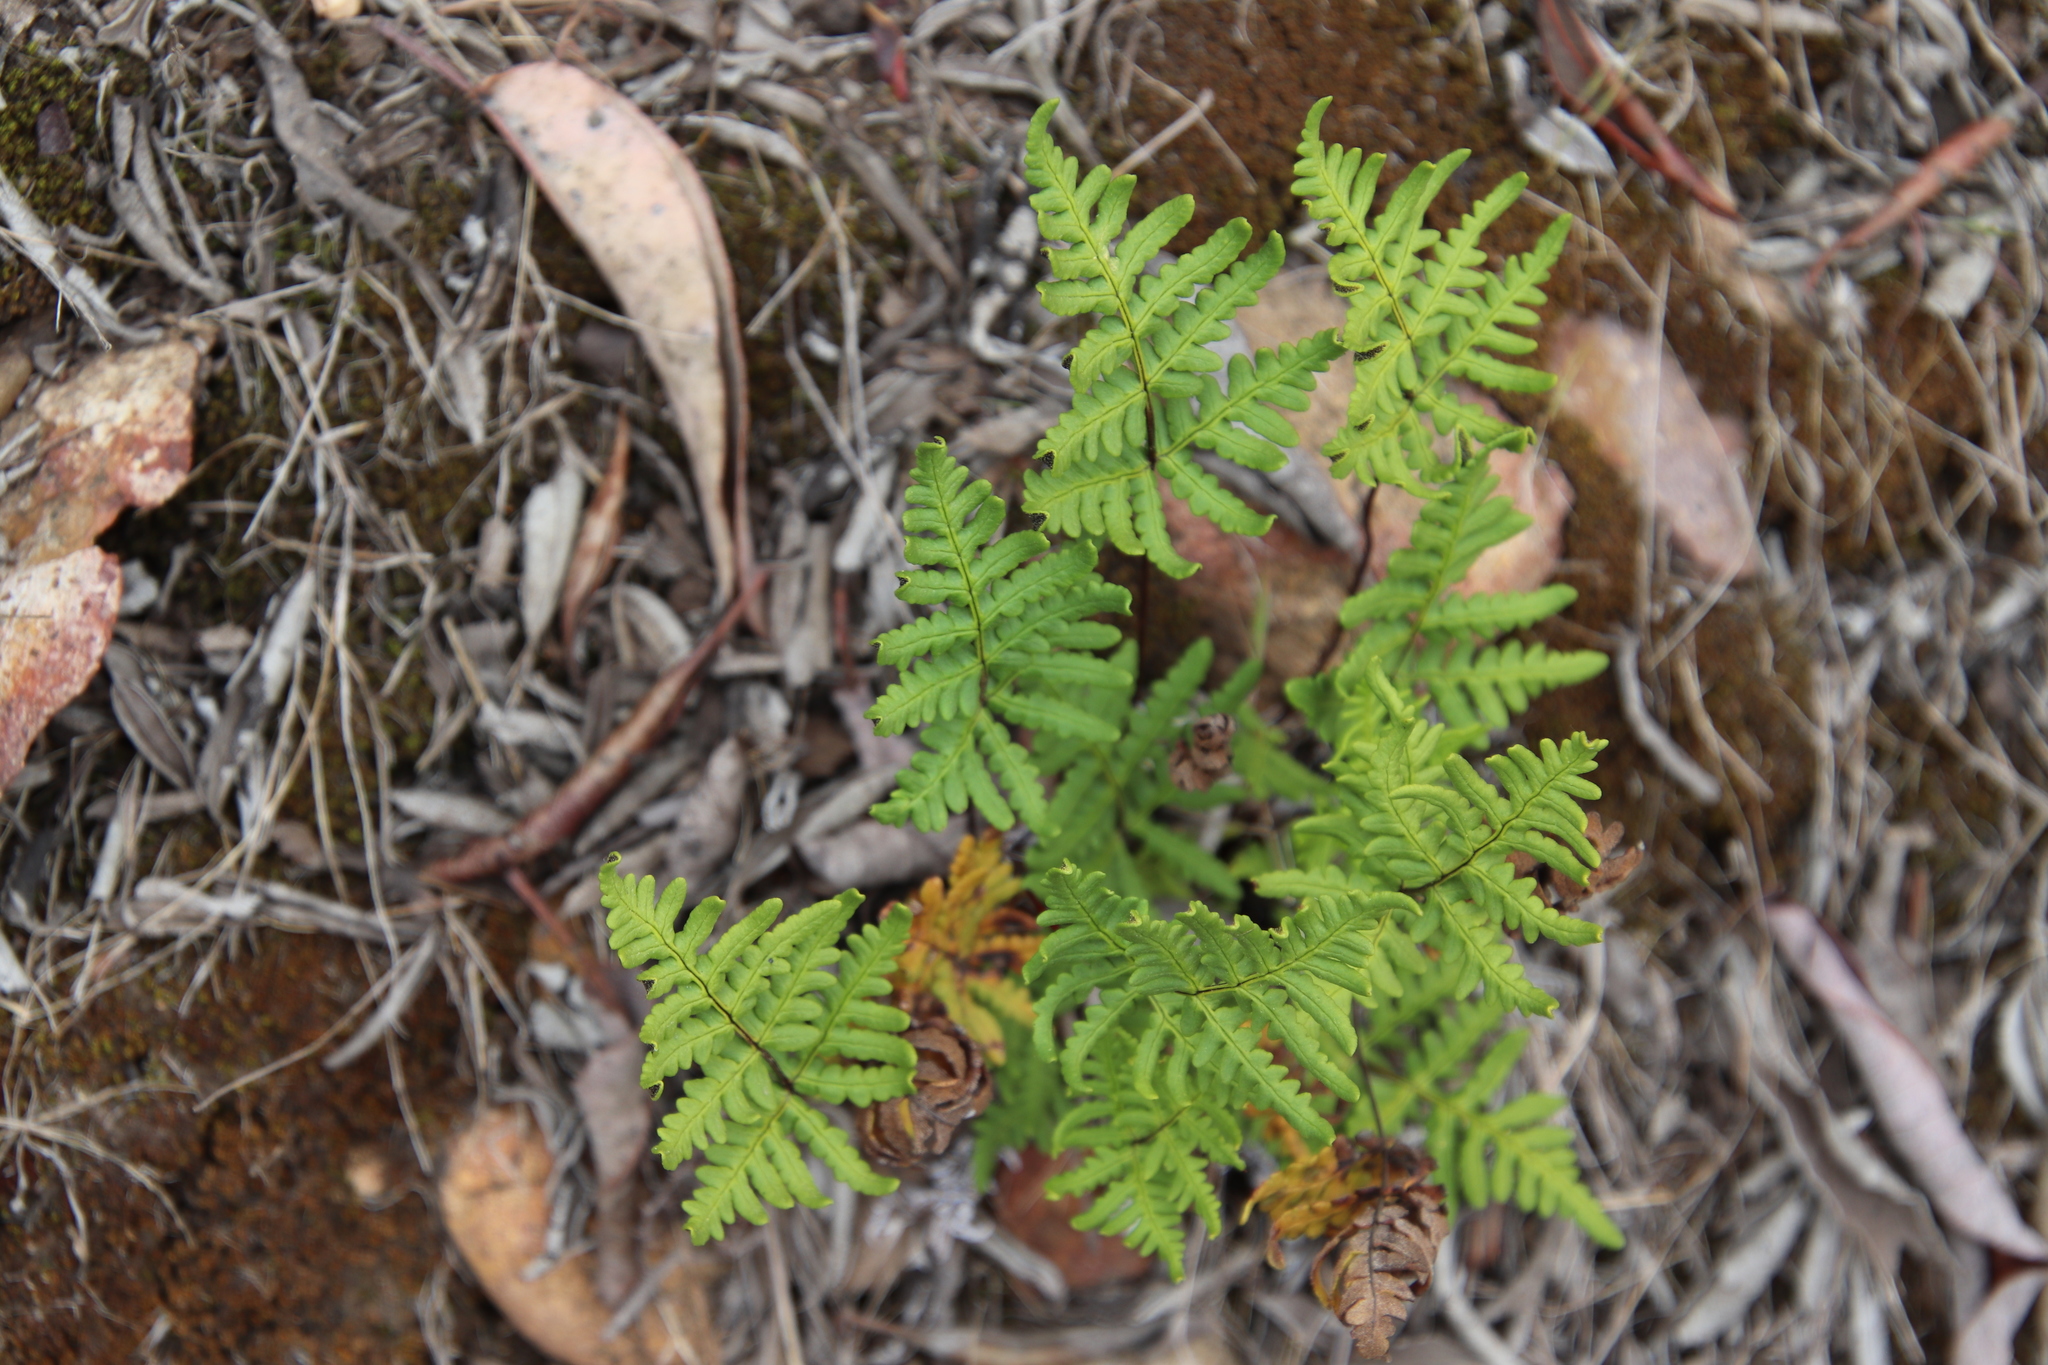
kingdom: Plantae
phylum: Tracheophyta
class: Polypodiopsida
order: Polypodiales
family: Pteridaceae
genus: Pentagramma
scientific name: Pentagramma triangularis
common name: Gold fern
